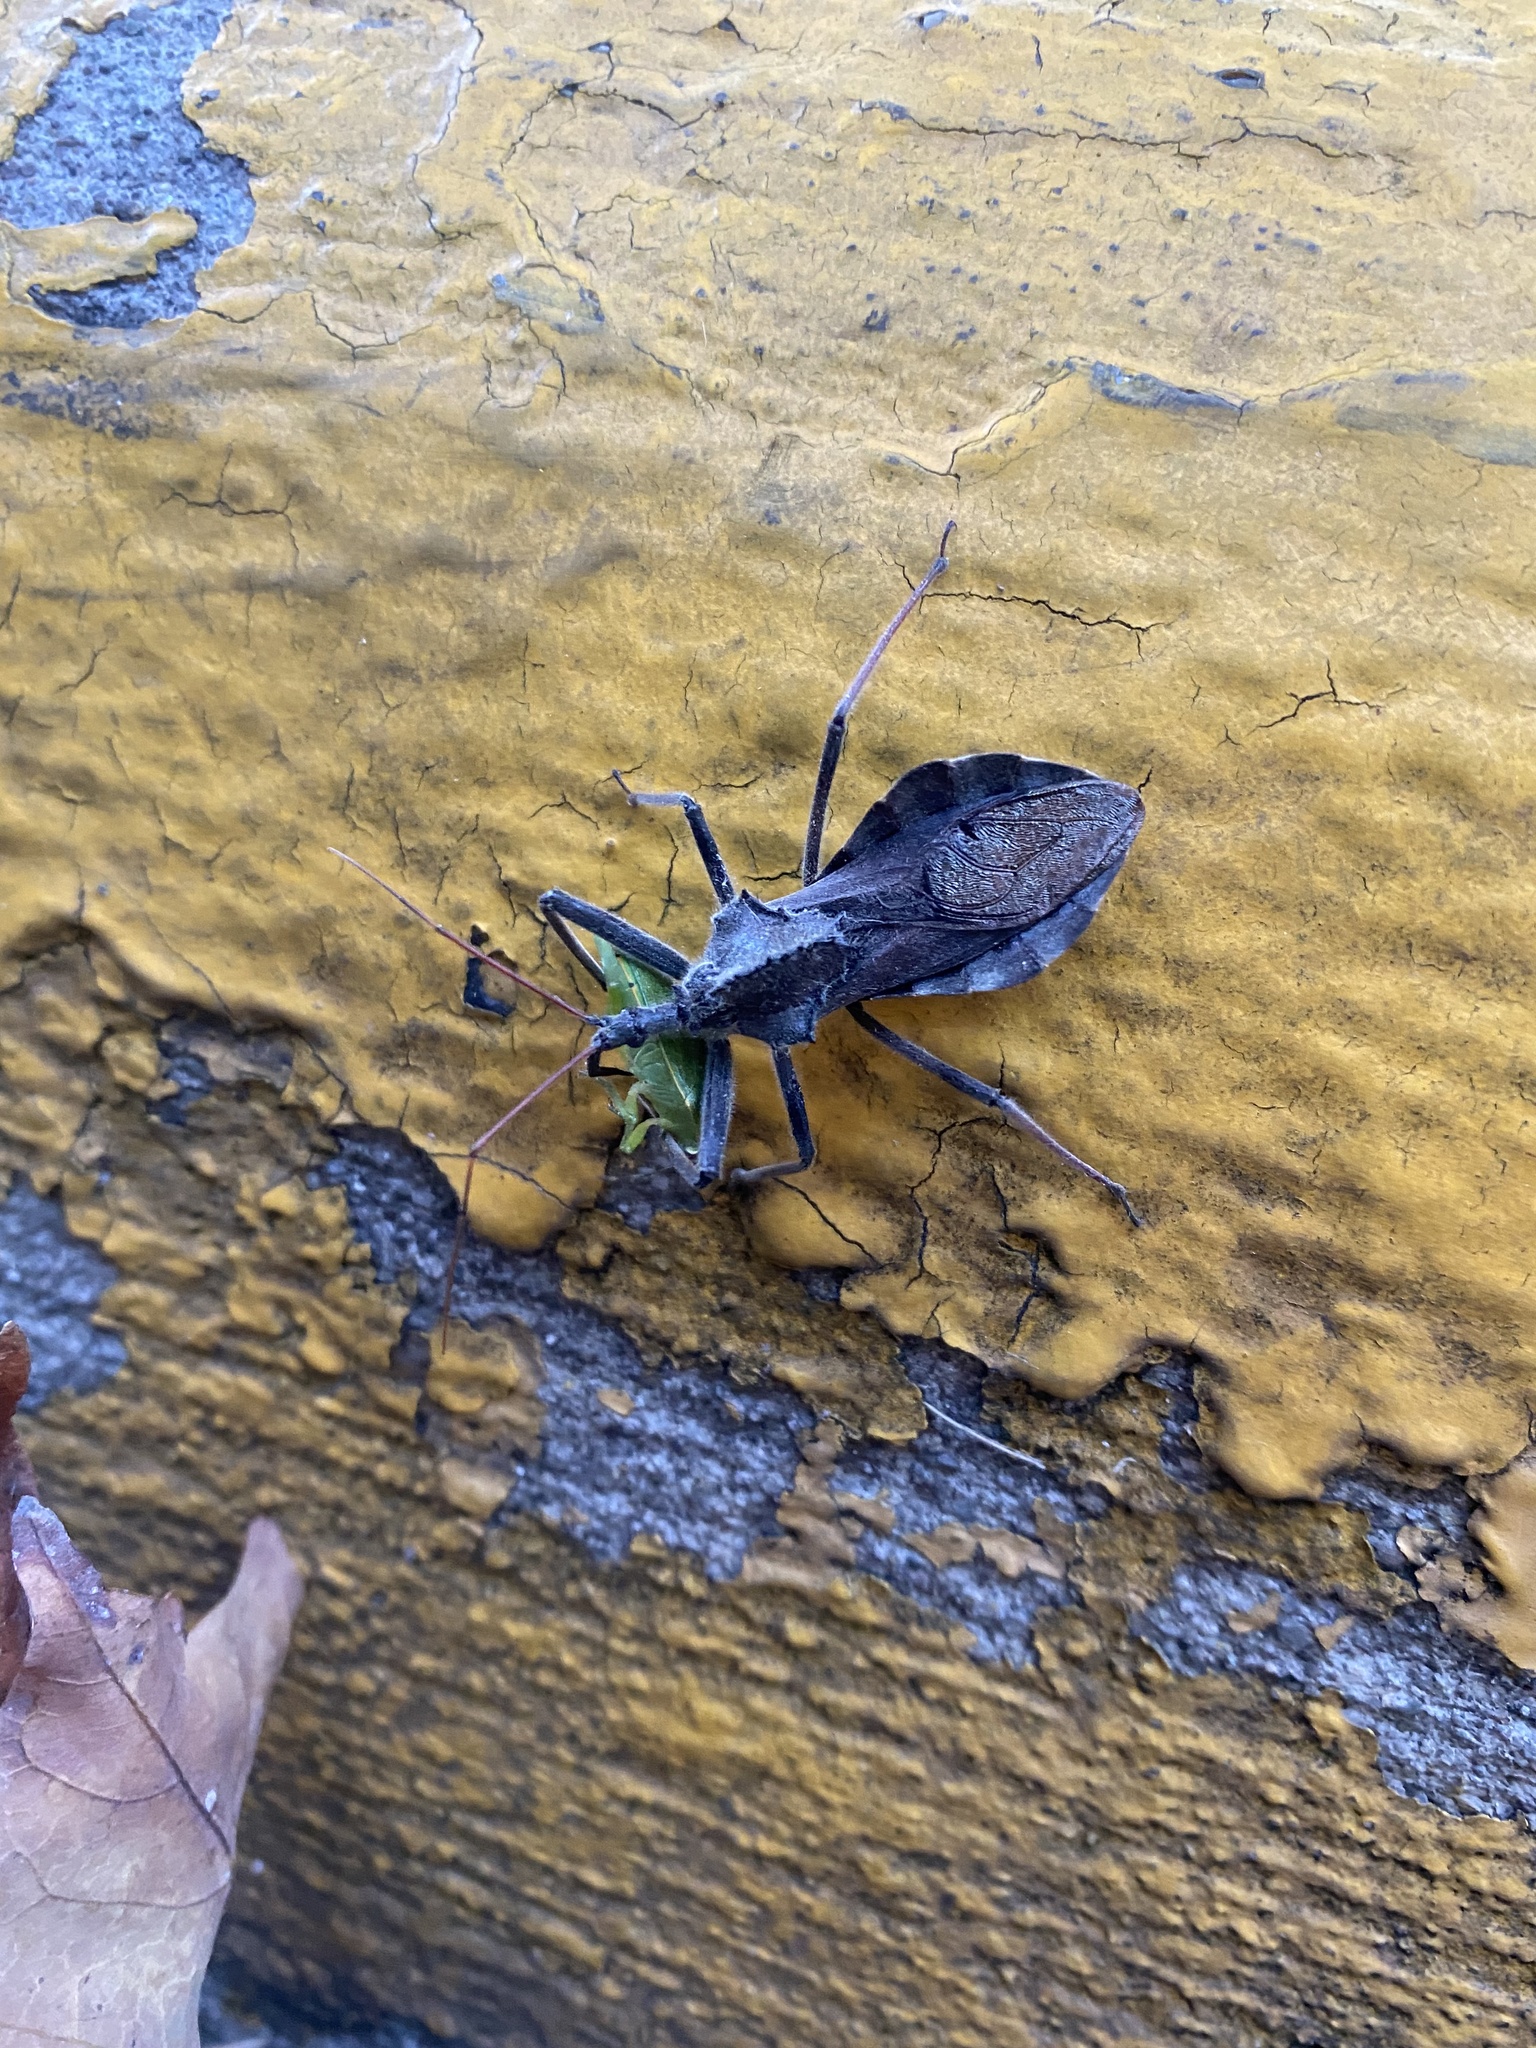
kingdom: Animalia
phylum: Arthropoda
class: Insecta
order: Hemiptera
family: Reduviidae
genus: Arilus
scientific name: Arilus cristatus
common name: North american wheel bug
